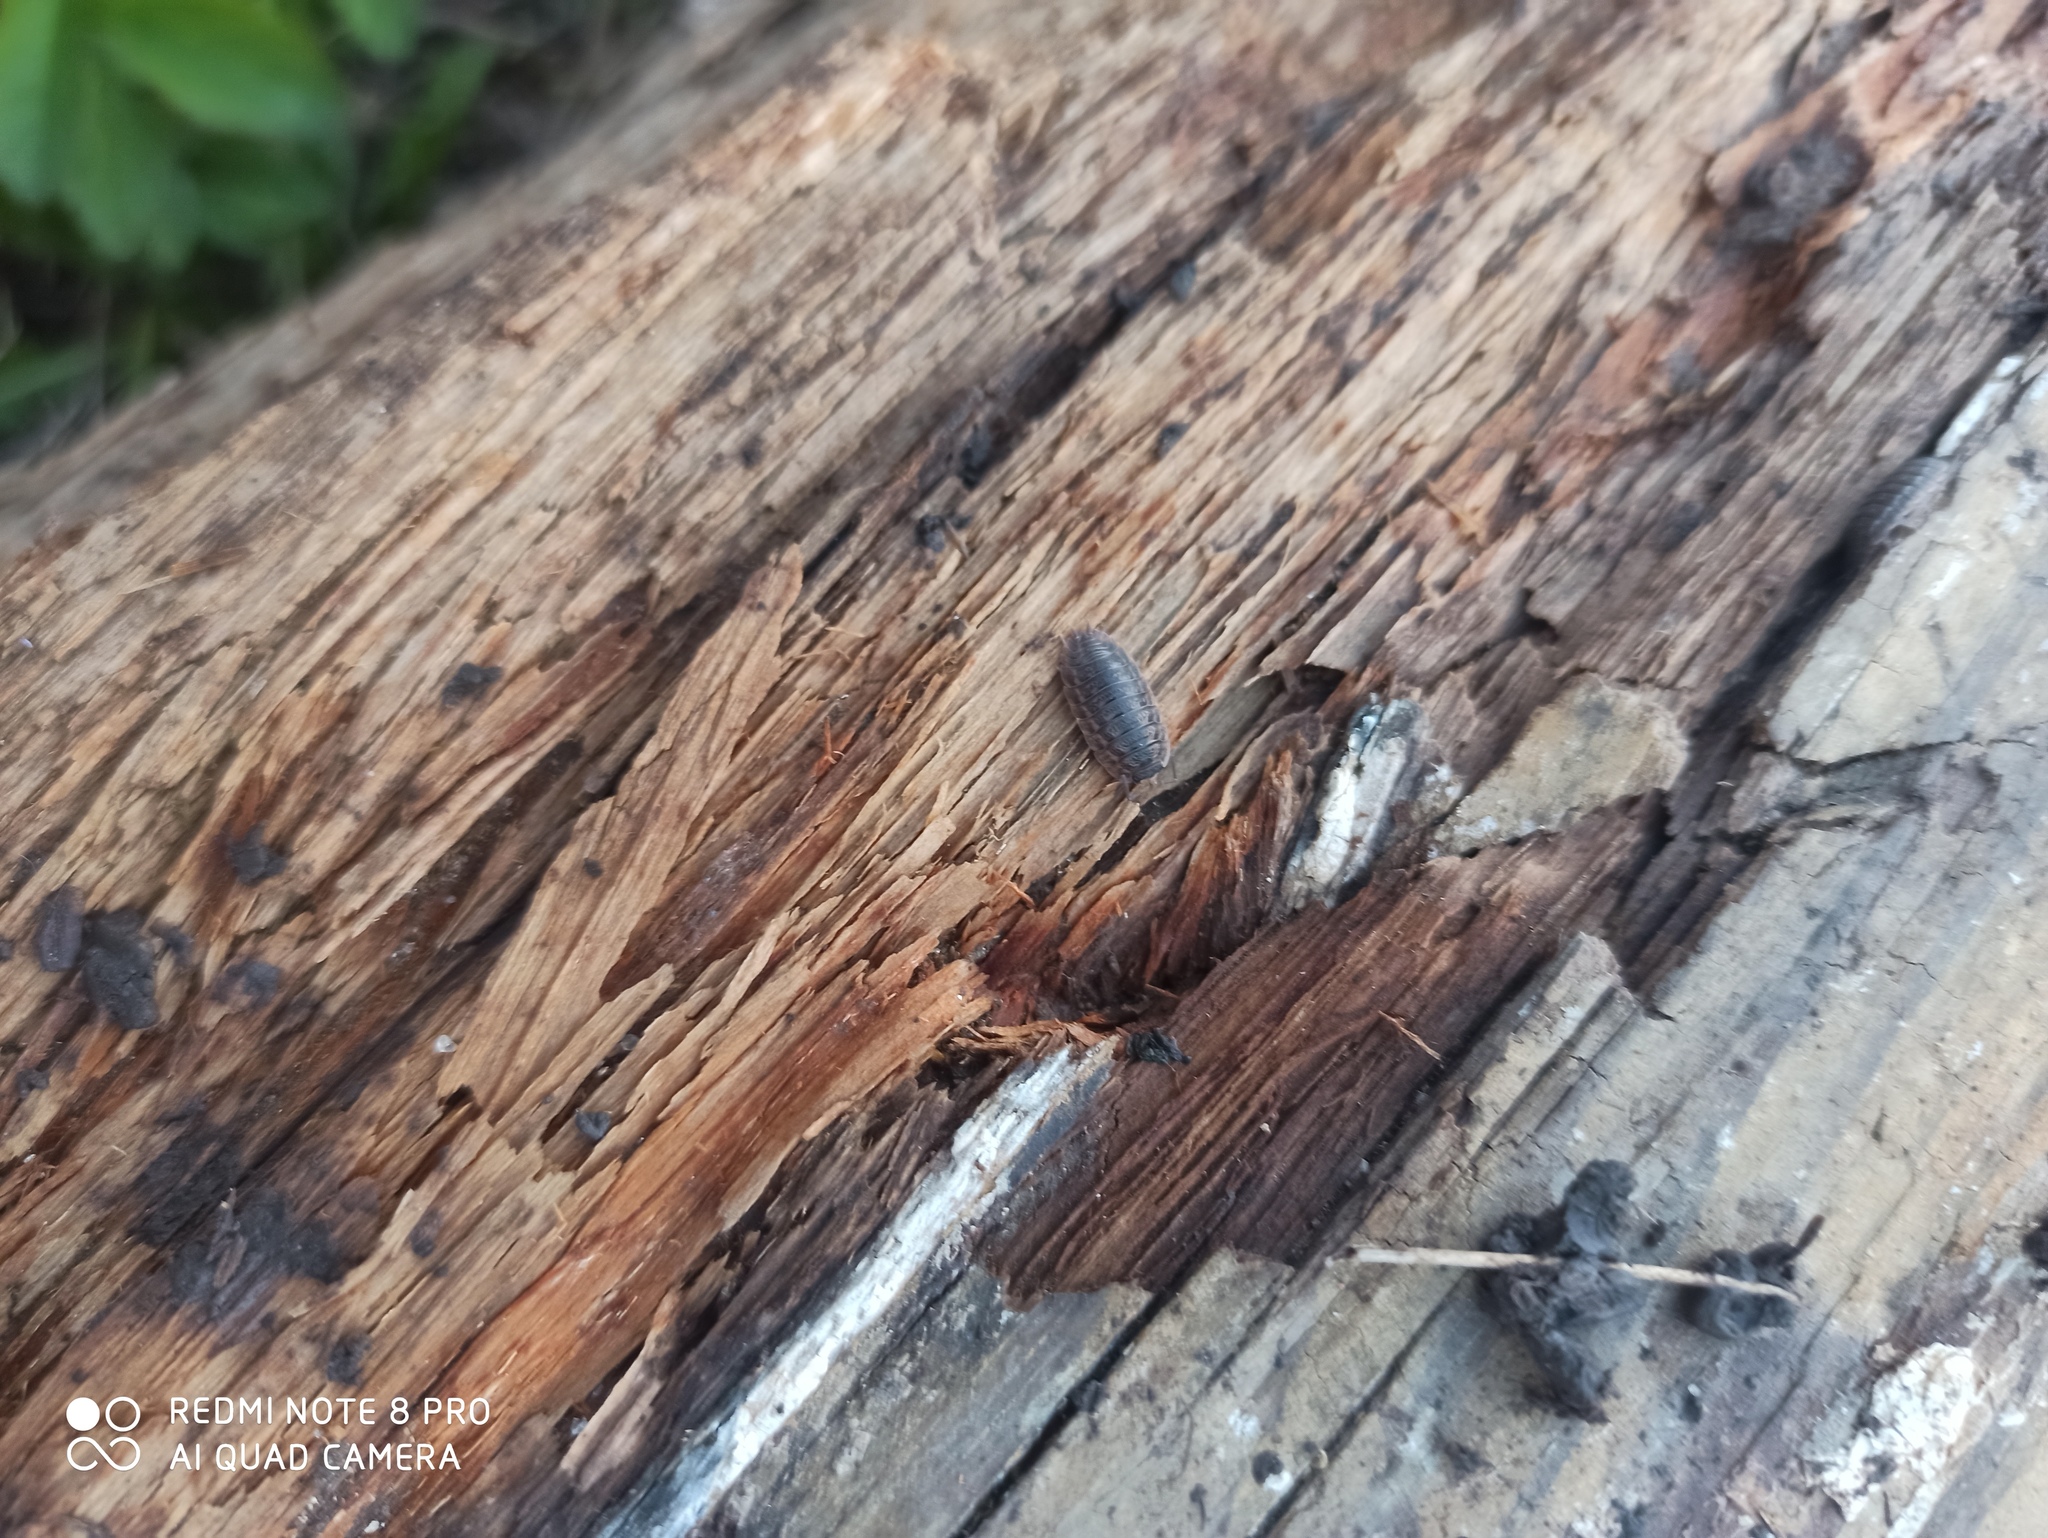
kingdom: Animalia
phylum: Arthropoda
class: Malacostraca
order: Isopoda
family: Trachelipodidae
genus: Trachelipus
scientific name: Trachelipus rathkii
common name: Isopod
